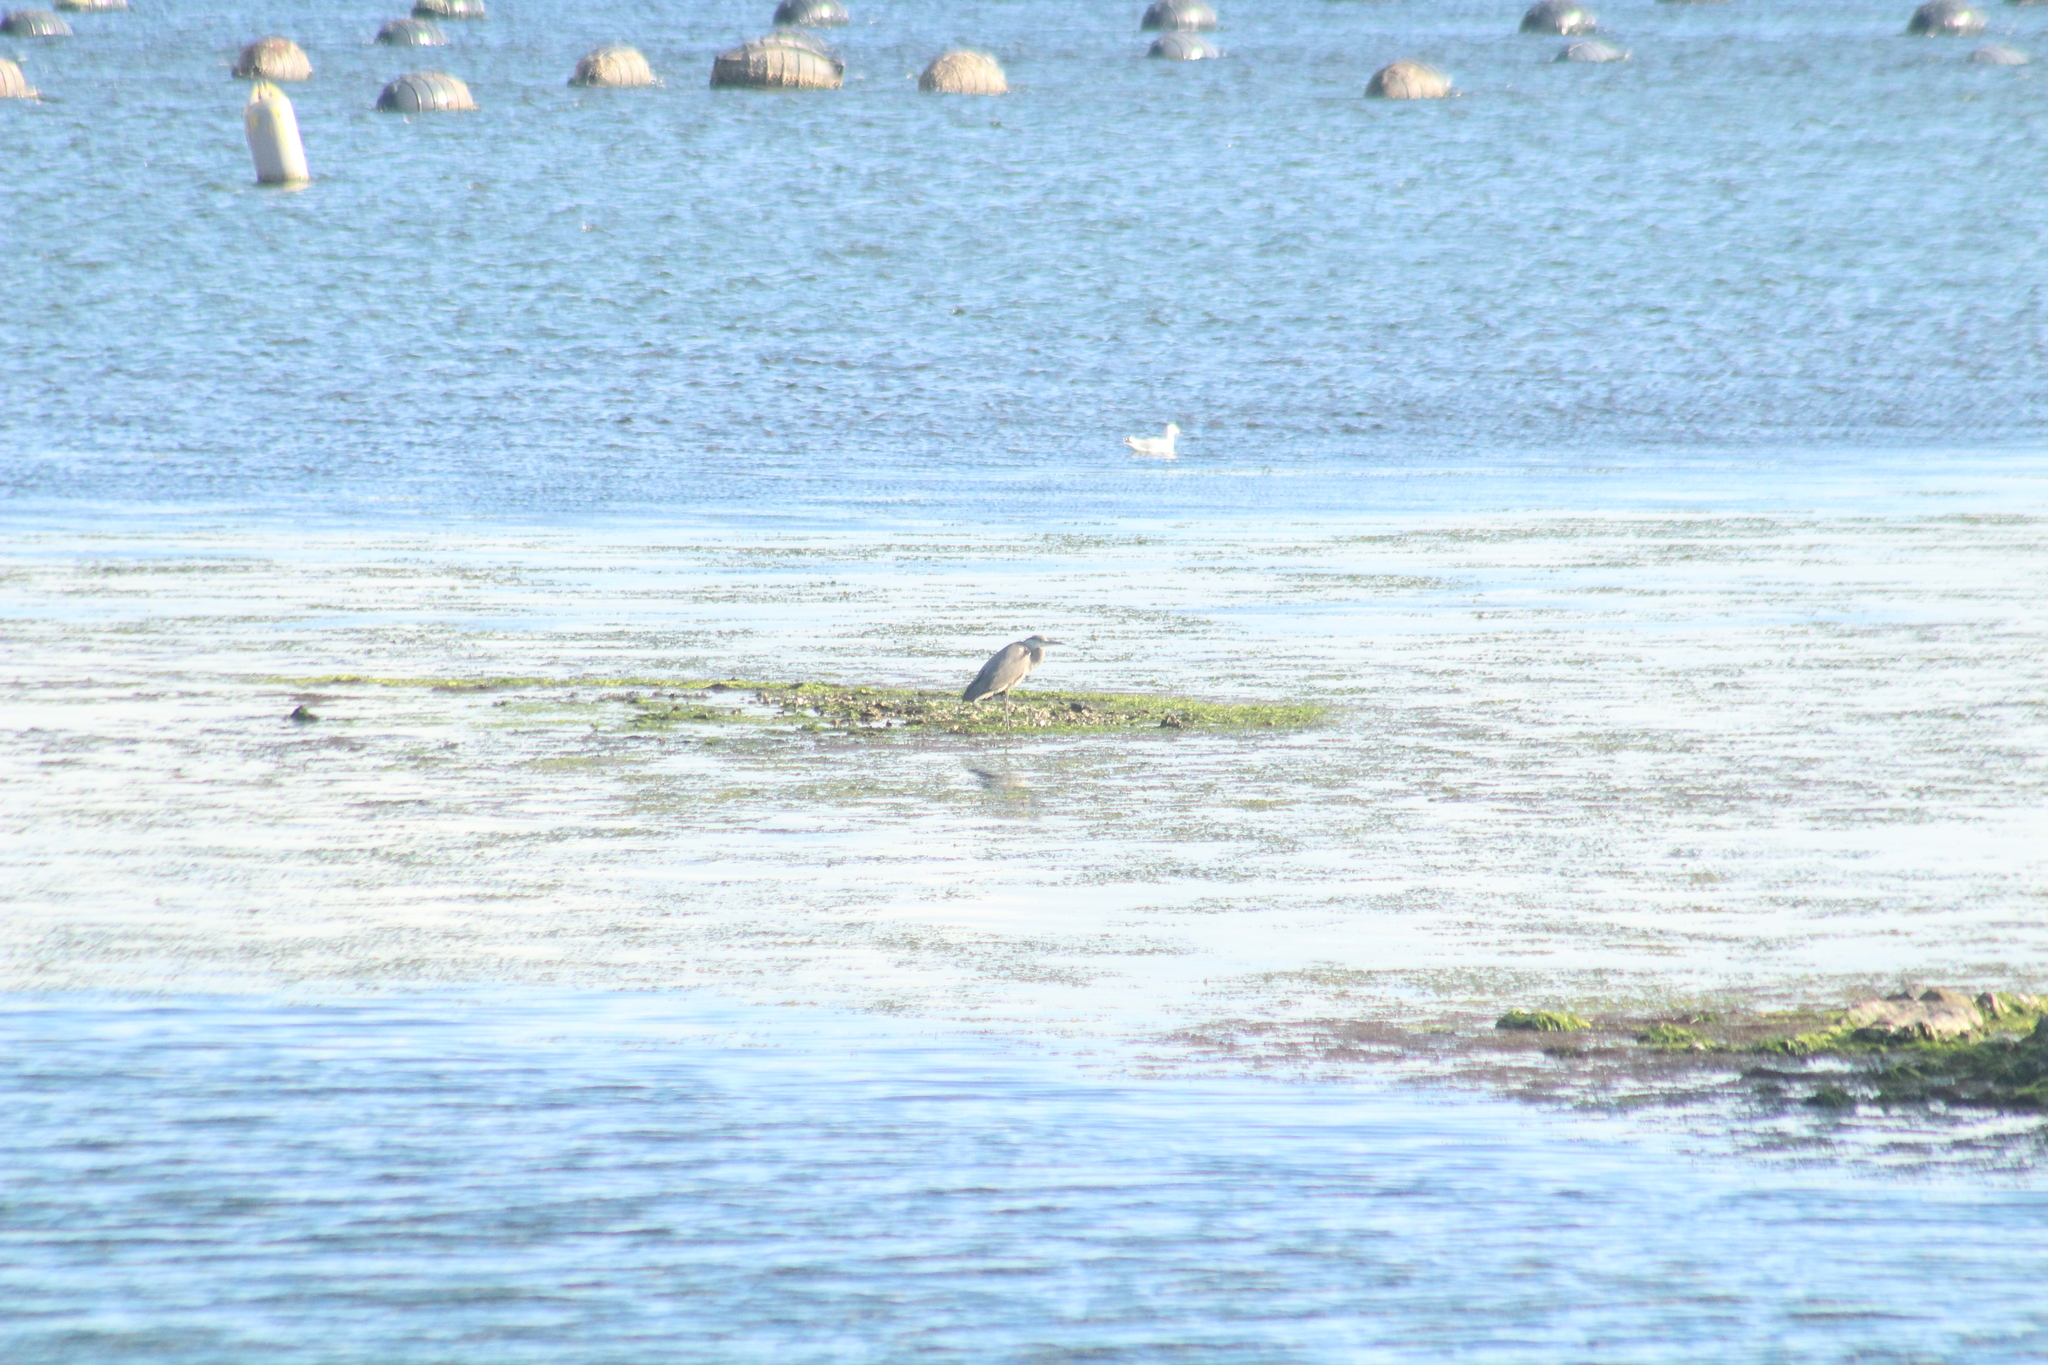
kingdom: Animalia
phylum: Chordata
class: Aves
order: Pelecaniformes
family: Ardeidae
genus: Ardea
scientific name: Ardea cinerea
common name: Grey heron
